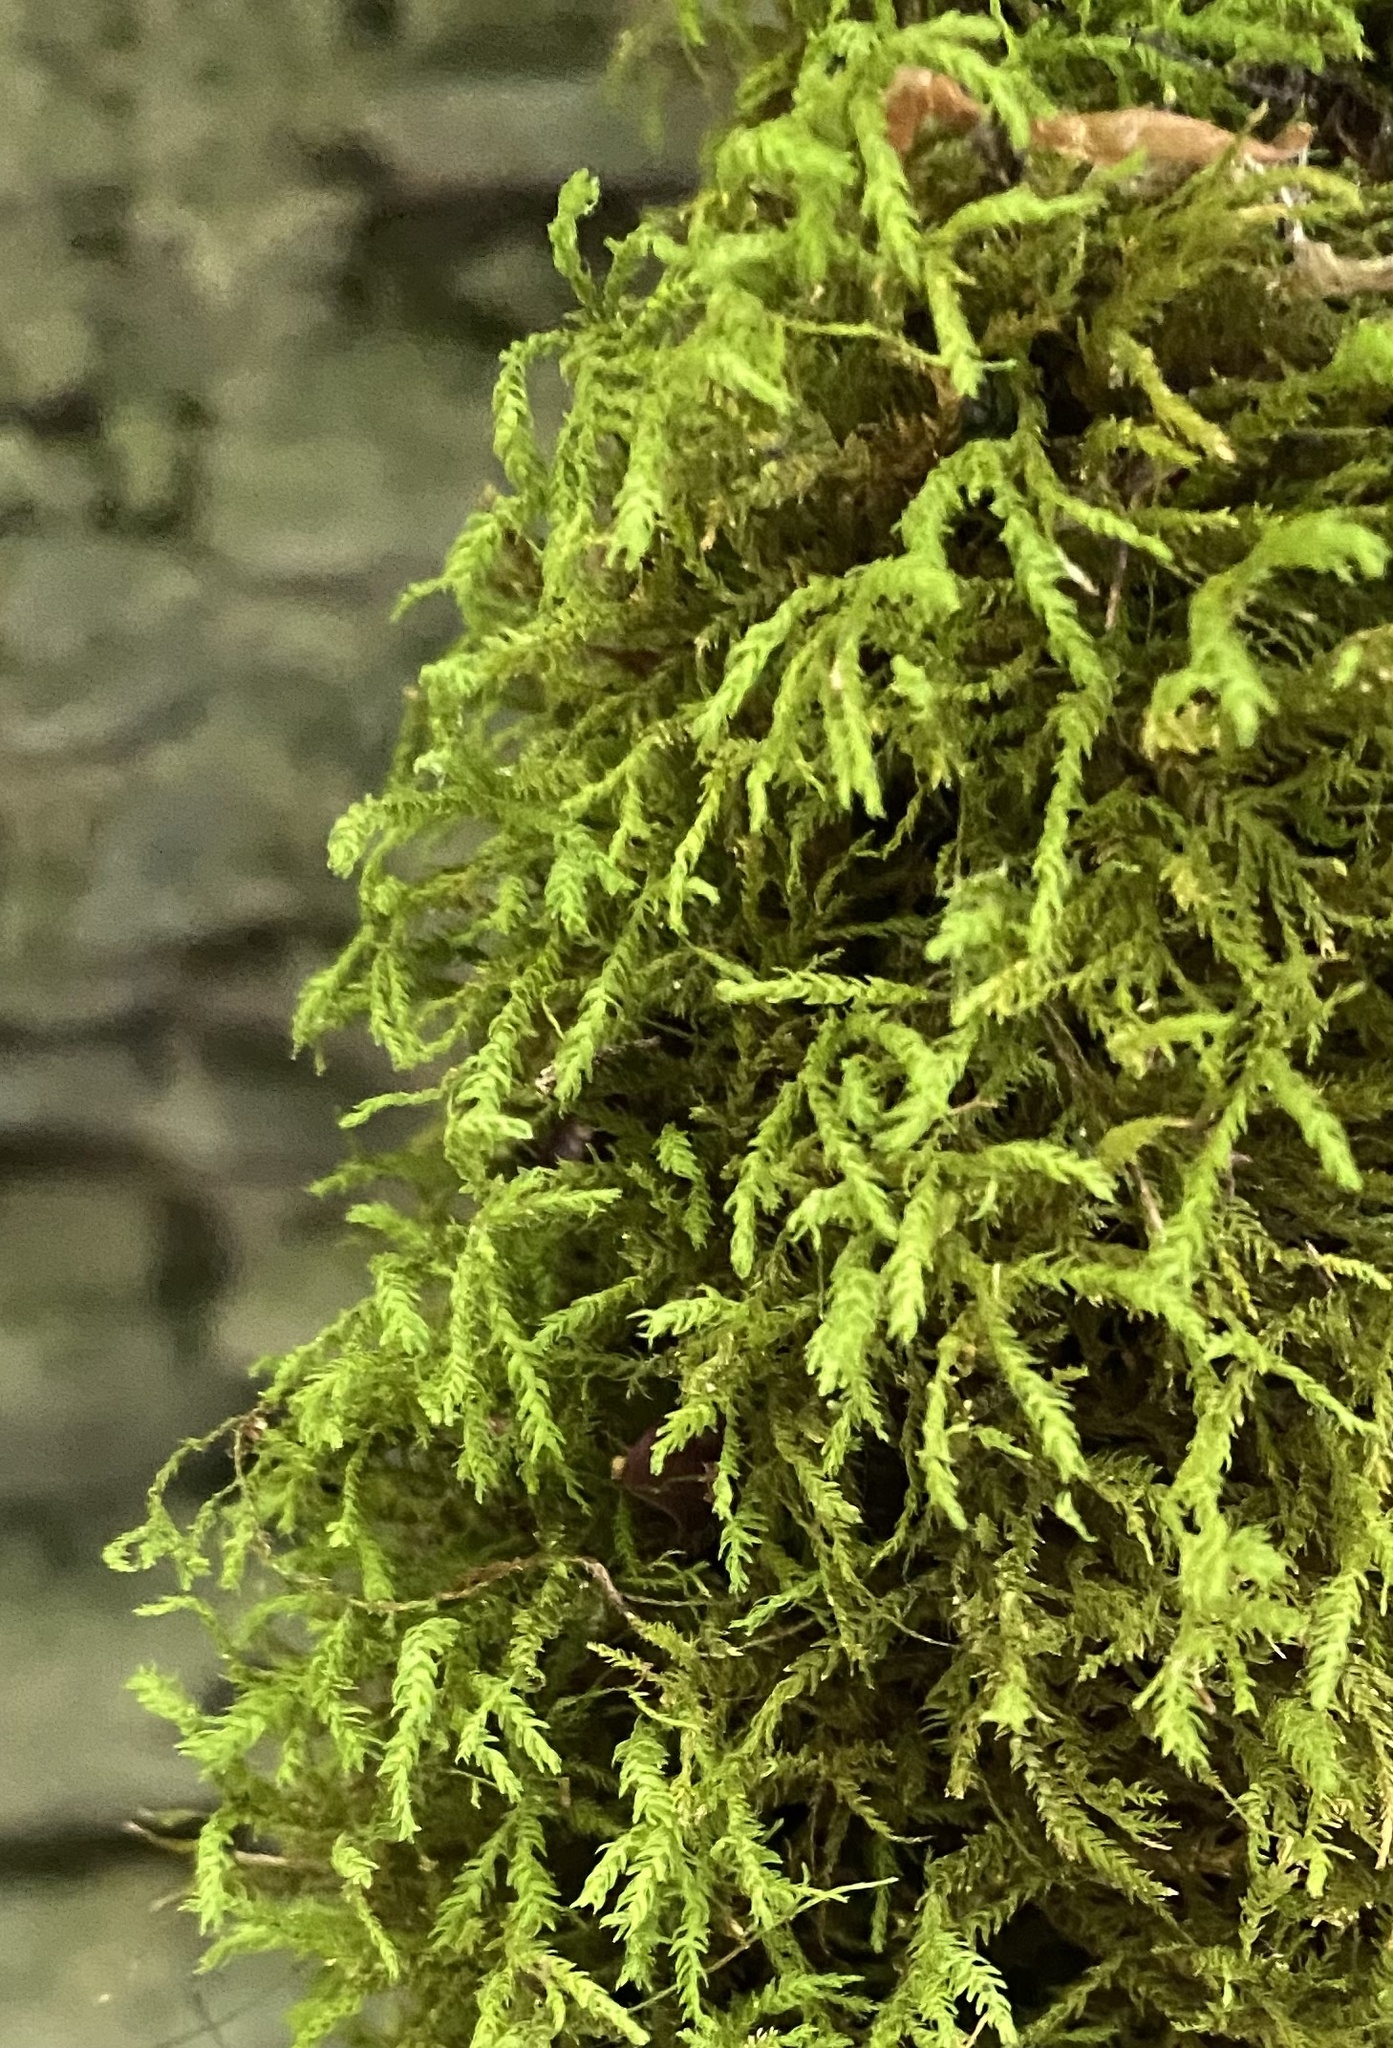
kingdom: Plantae
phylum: Bryophyta
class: Bryopsida
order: Hypnales
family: Neckeraceae
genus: Pseudanomodon
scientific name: Pseudanomodon attenuatus
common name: Tree-skirt moss
